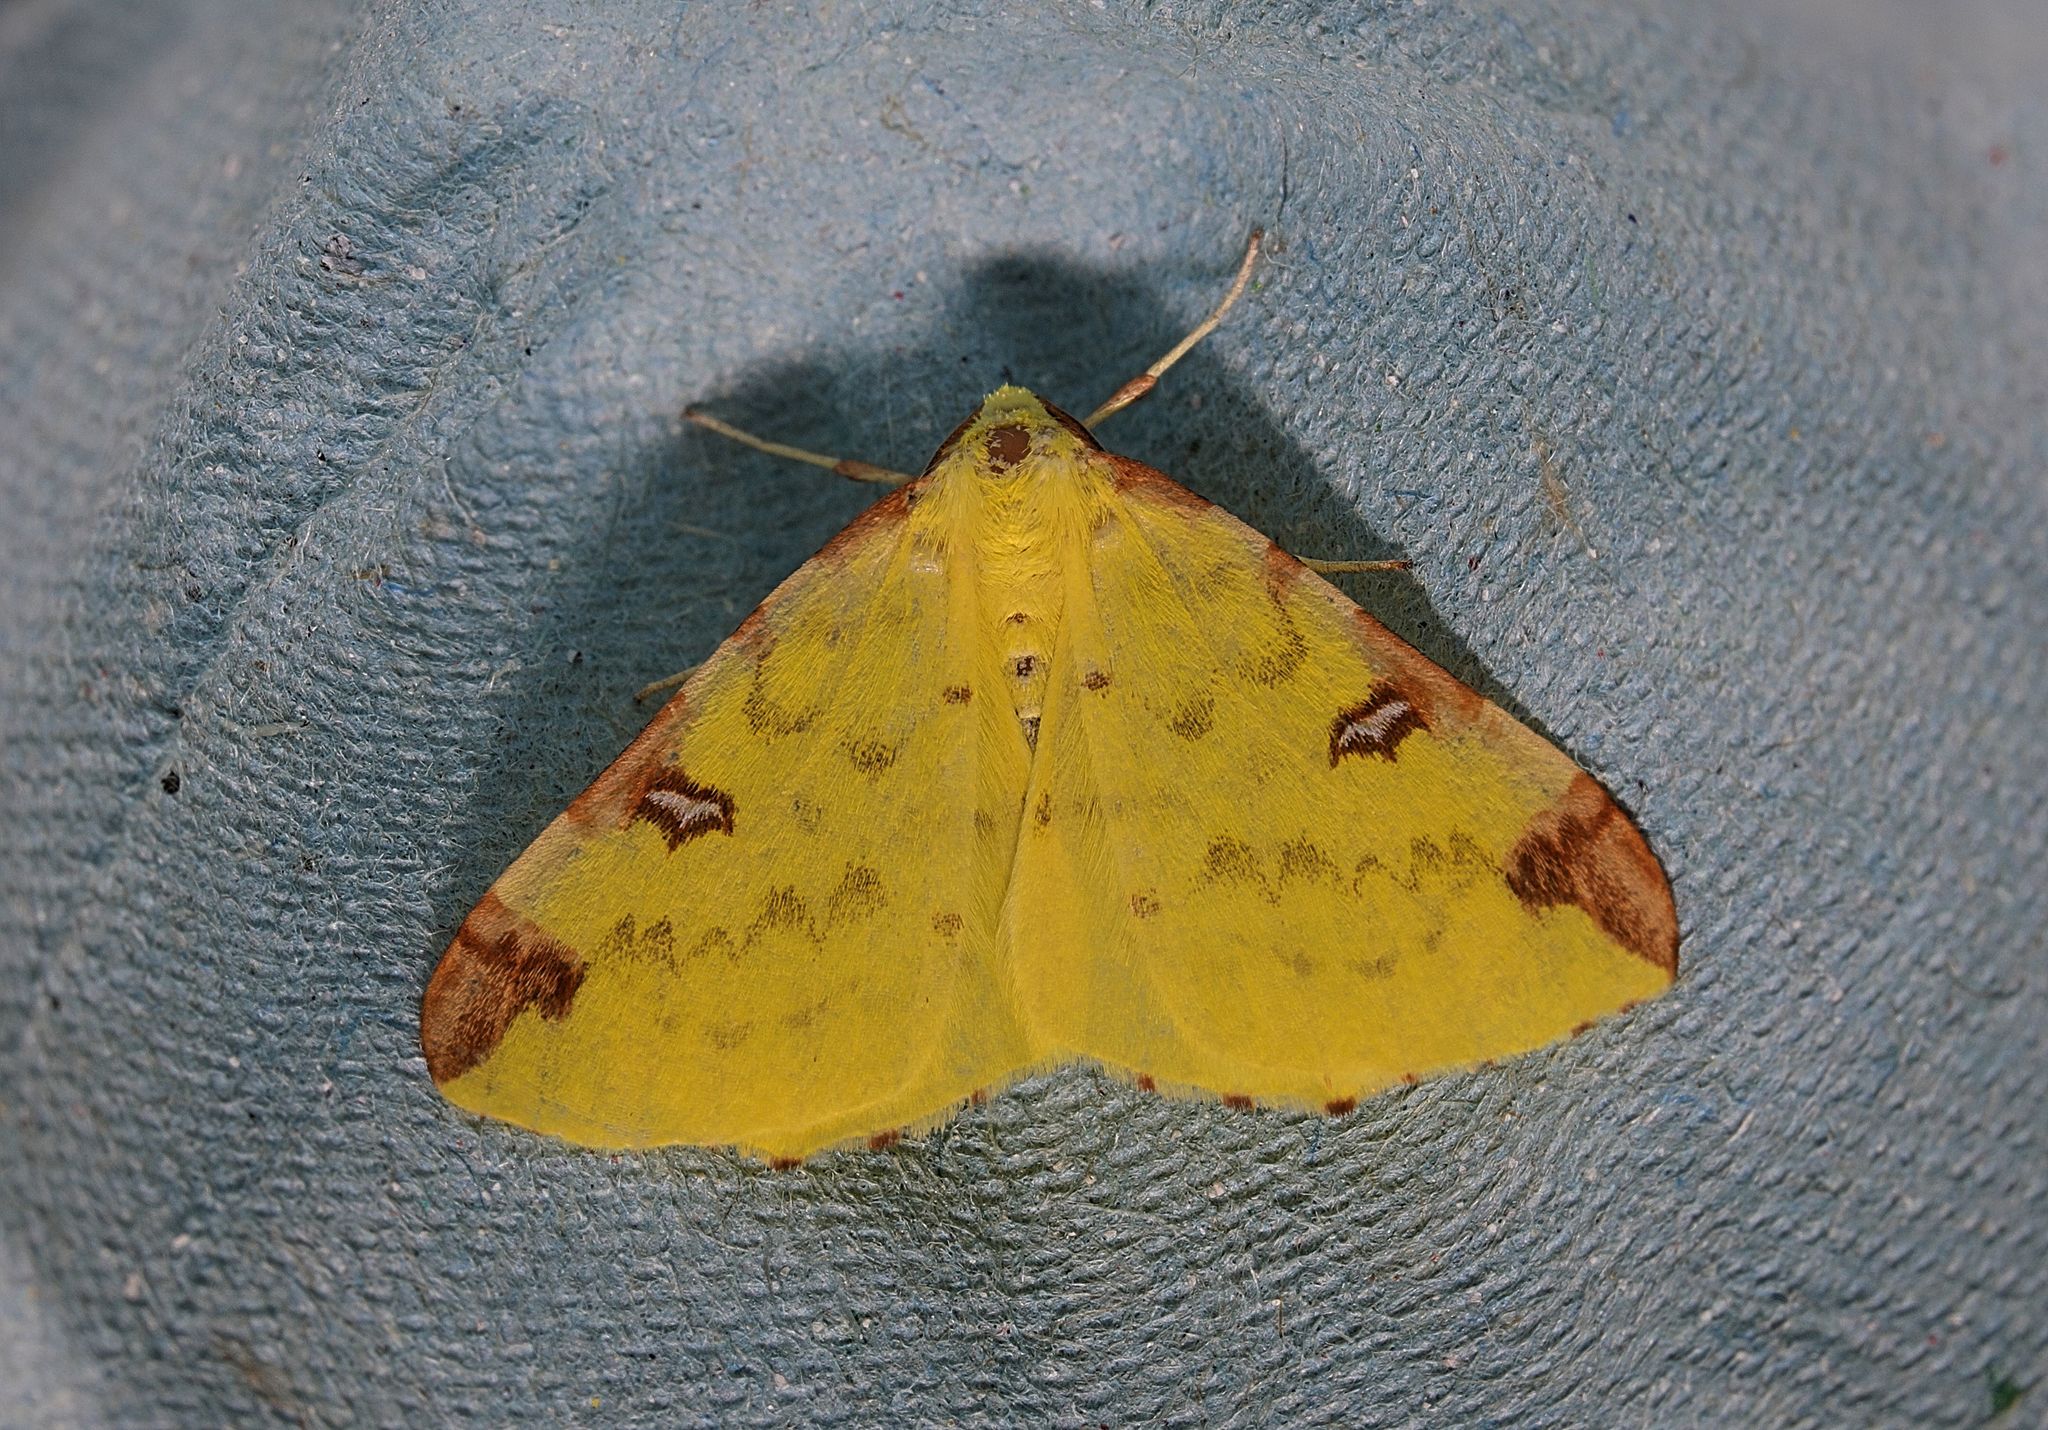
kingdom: Animalia
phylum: Arthropoda
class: Insecta
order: Lepidoptera
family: Geometridae
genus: Opisthograptis
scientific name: Opisthograptis luteolata
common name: Brimstone moth
